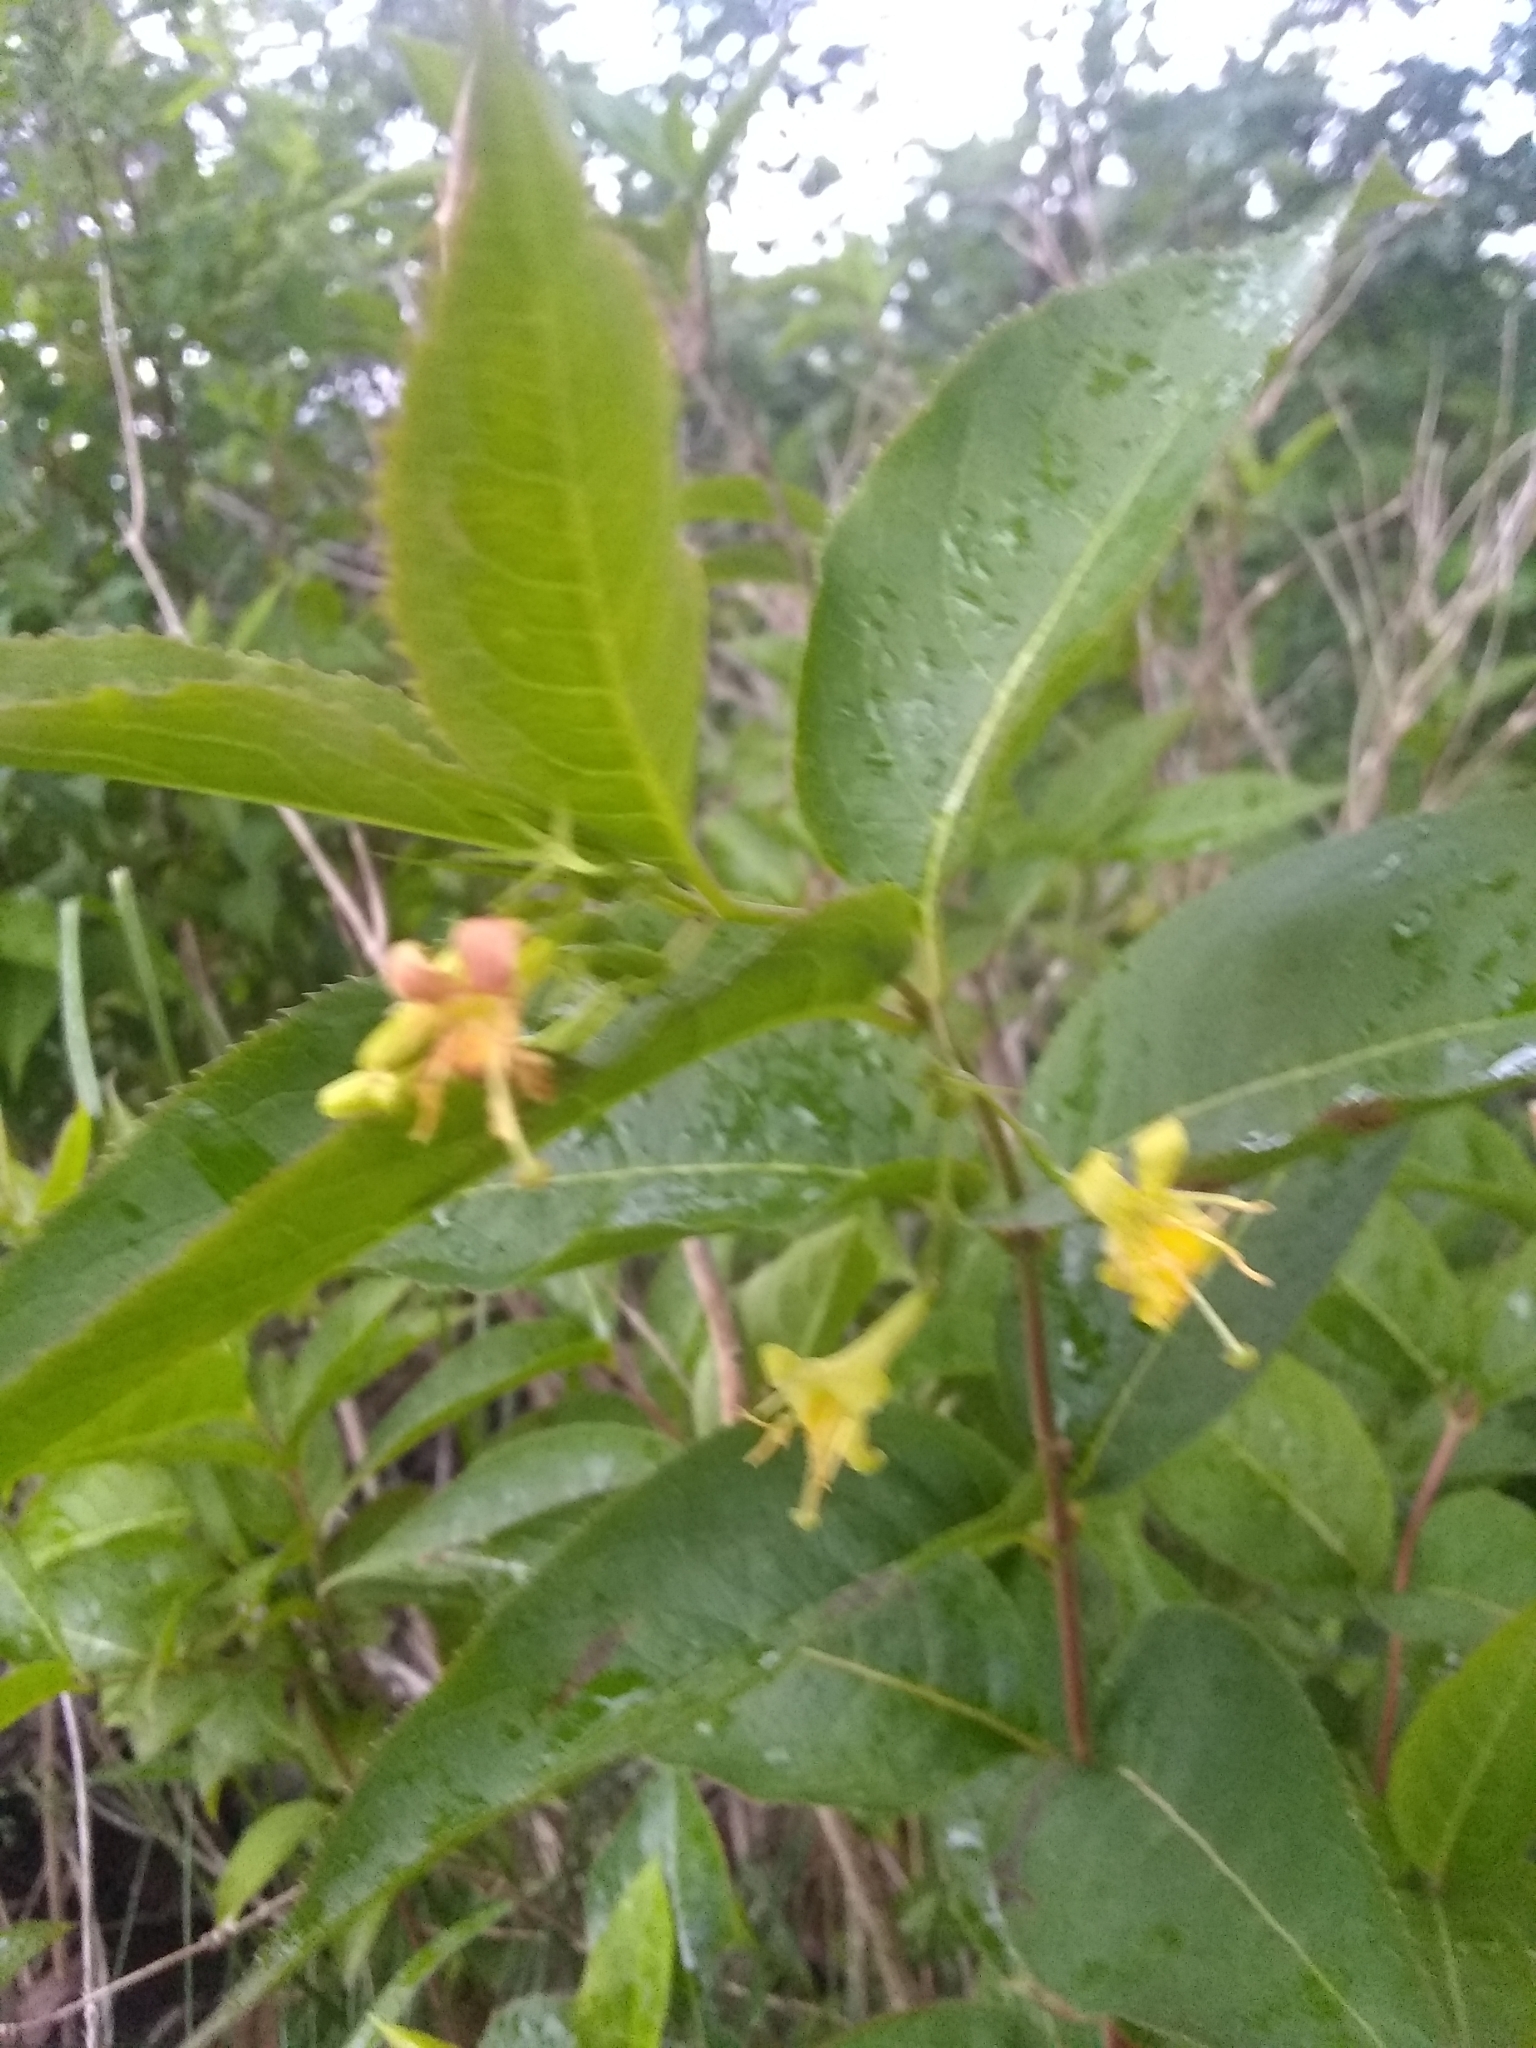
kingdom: Plantae
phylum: Tracheophyta
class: Magnoliopsida
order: Dipsacales
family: Caprifoliaceae
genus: Diervilla
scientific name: Diervilla lonicera
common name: Bush-honeysuckle
